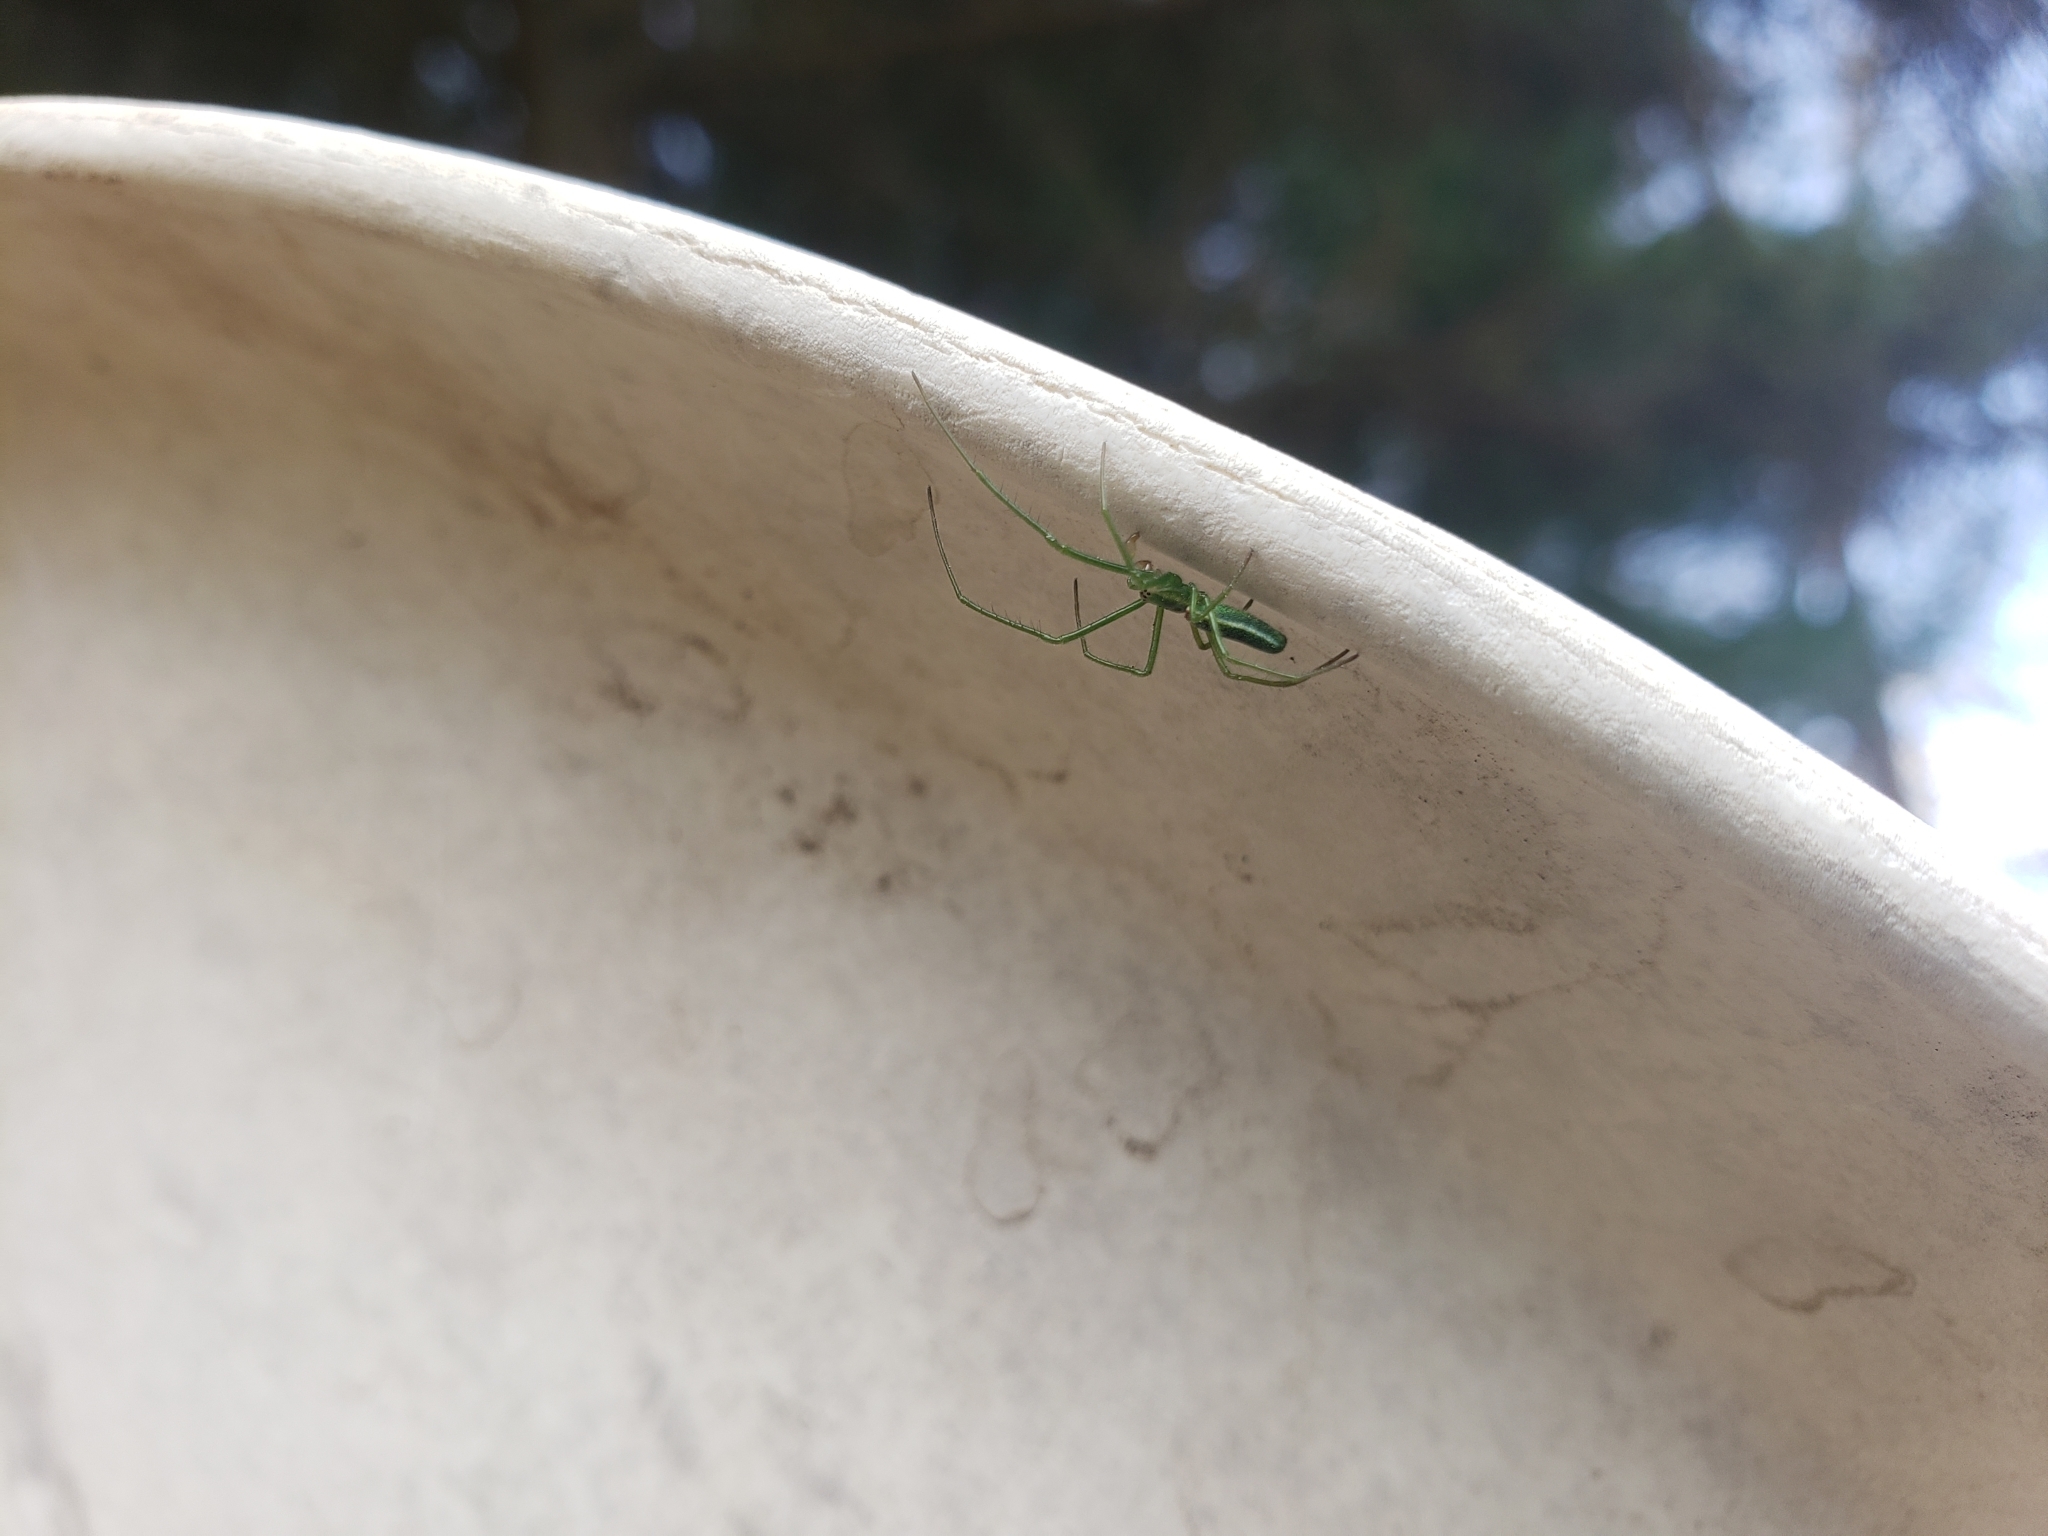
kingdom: Animalia
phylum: Arthropoda
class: Arachnida
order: Araneae
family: Tetragnathidae
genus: Tetragnatha
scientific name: Tetragnatha viridis
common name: Green long-jawed spider
